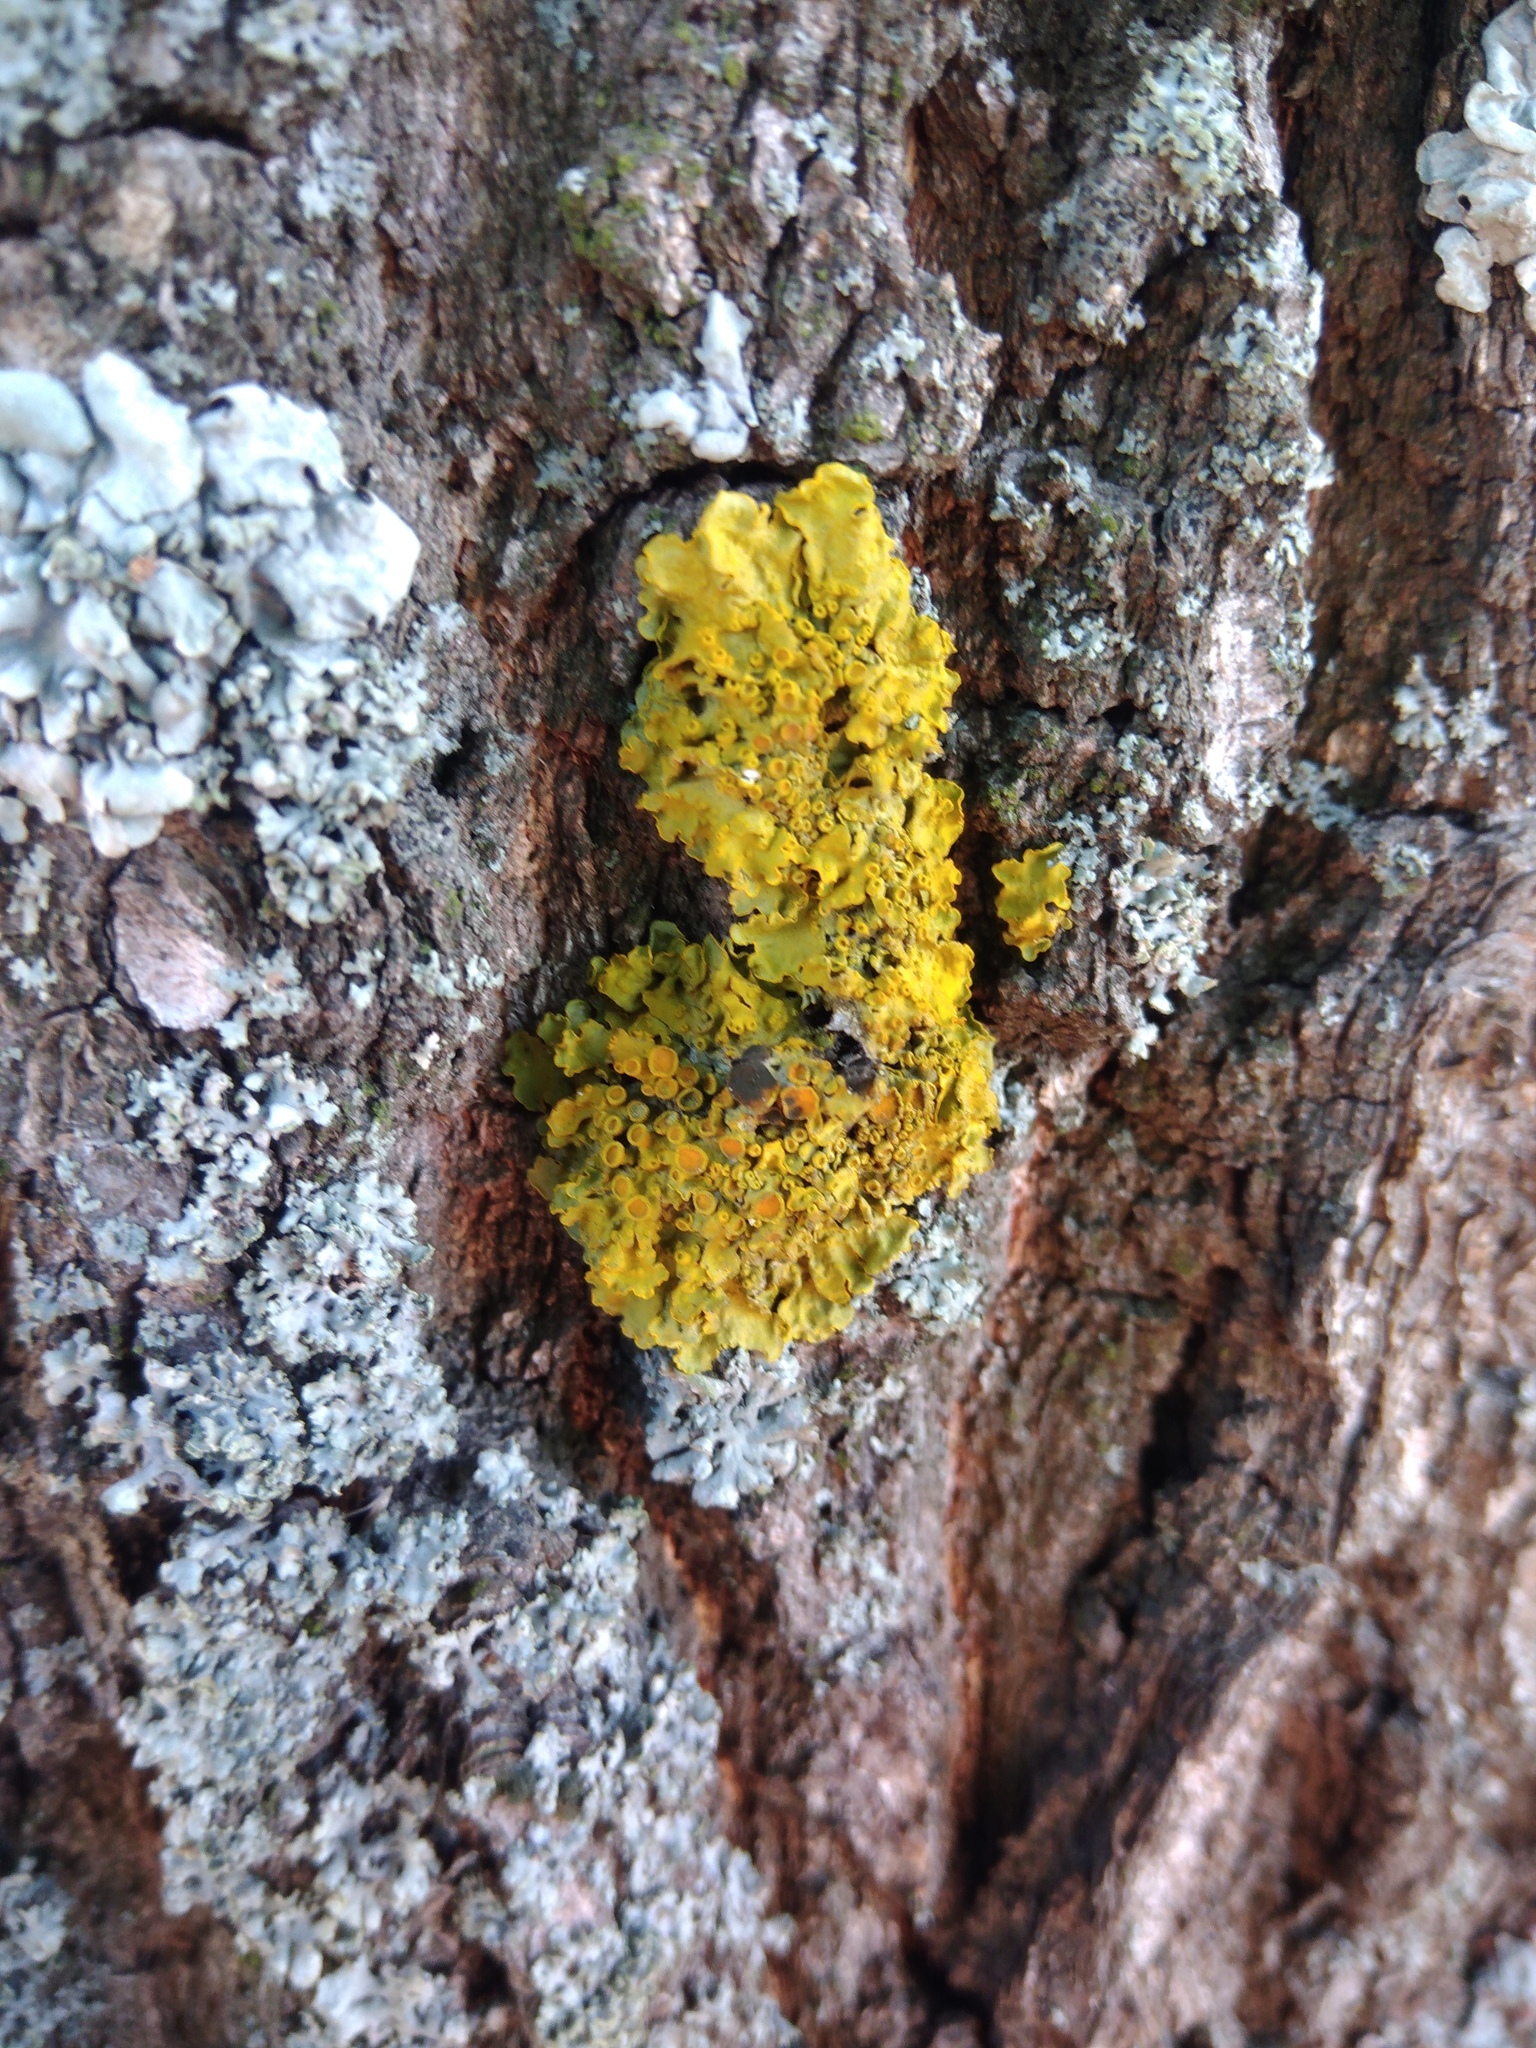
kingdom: Fungi
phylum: Ascomycota
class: Lecanoromycetes
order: Teloschistales
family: Teloschistaceae
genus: Xanthoria
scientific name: Xanthoria parietina
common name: Common orange lichen
